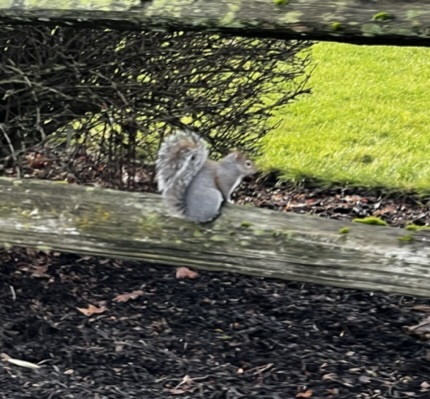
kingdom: Animalia
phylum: Chordata
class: Mammalia
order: Rodentia
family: Sciuridae
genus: Sciurus
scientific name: Sciurus carolinensis
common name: Eastern gray squirrel
